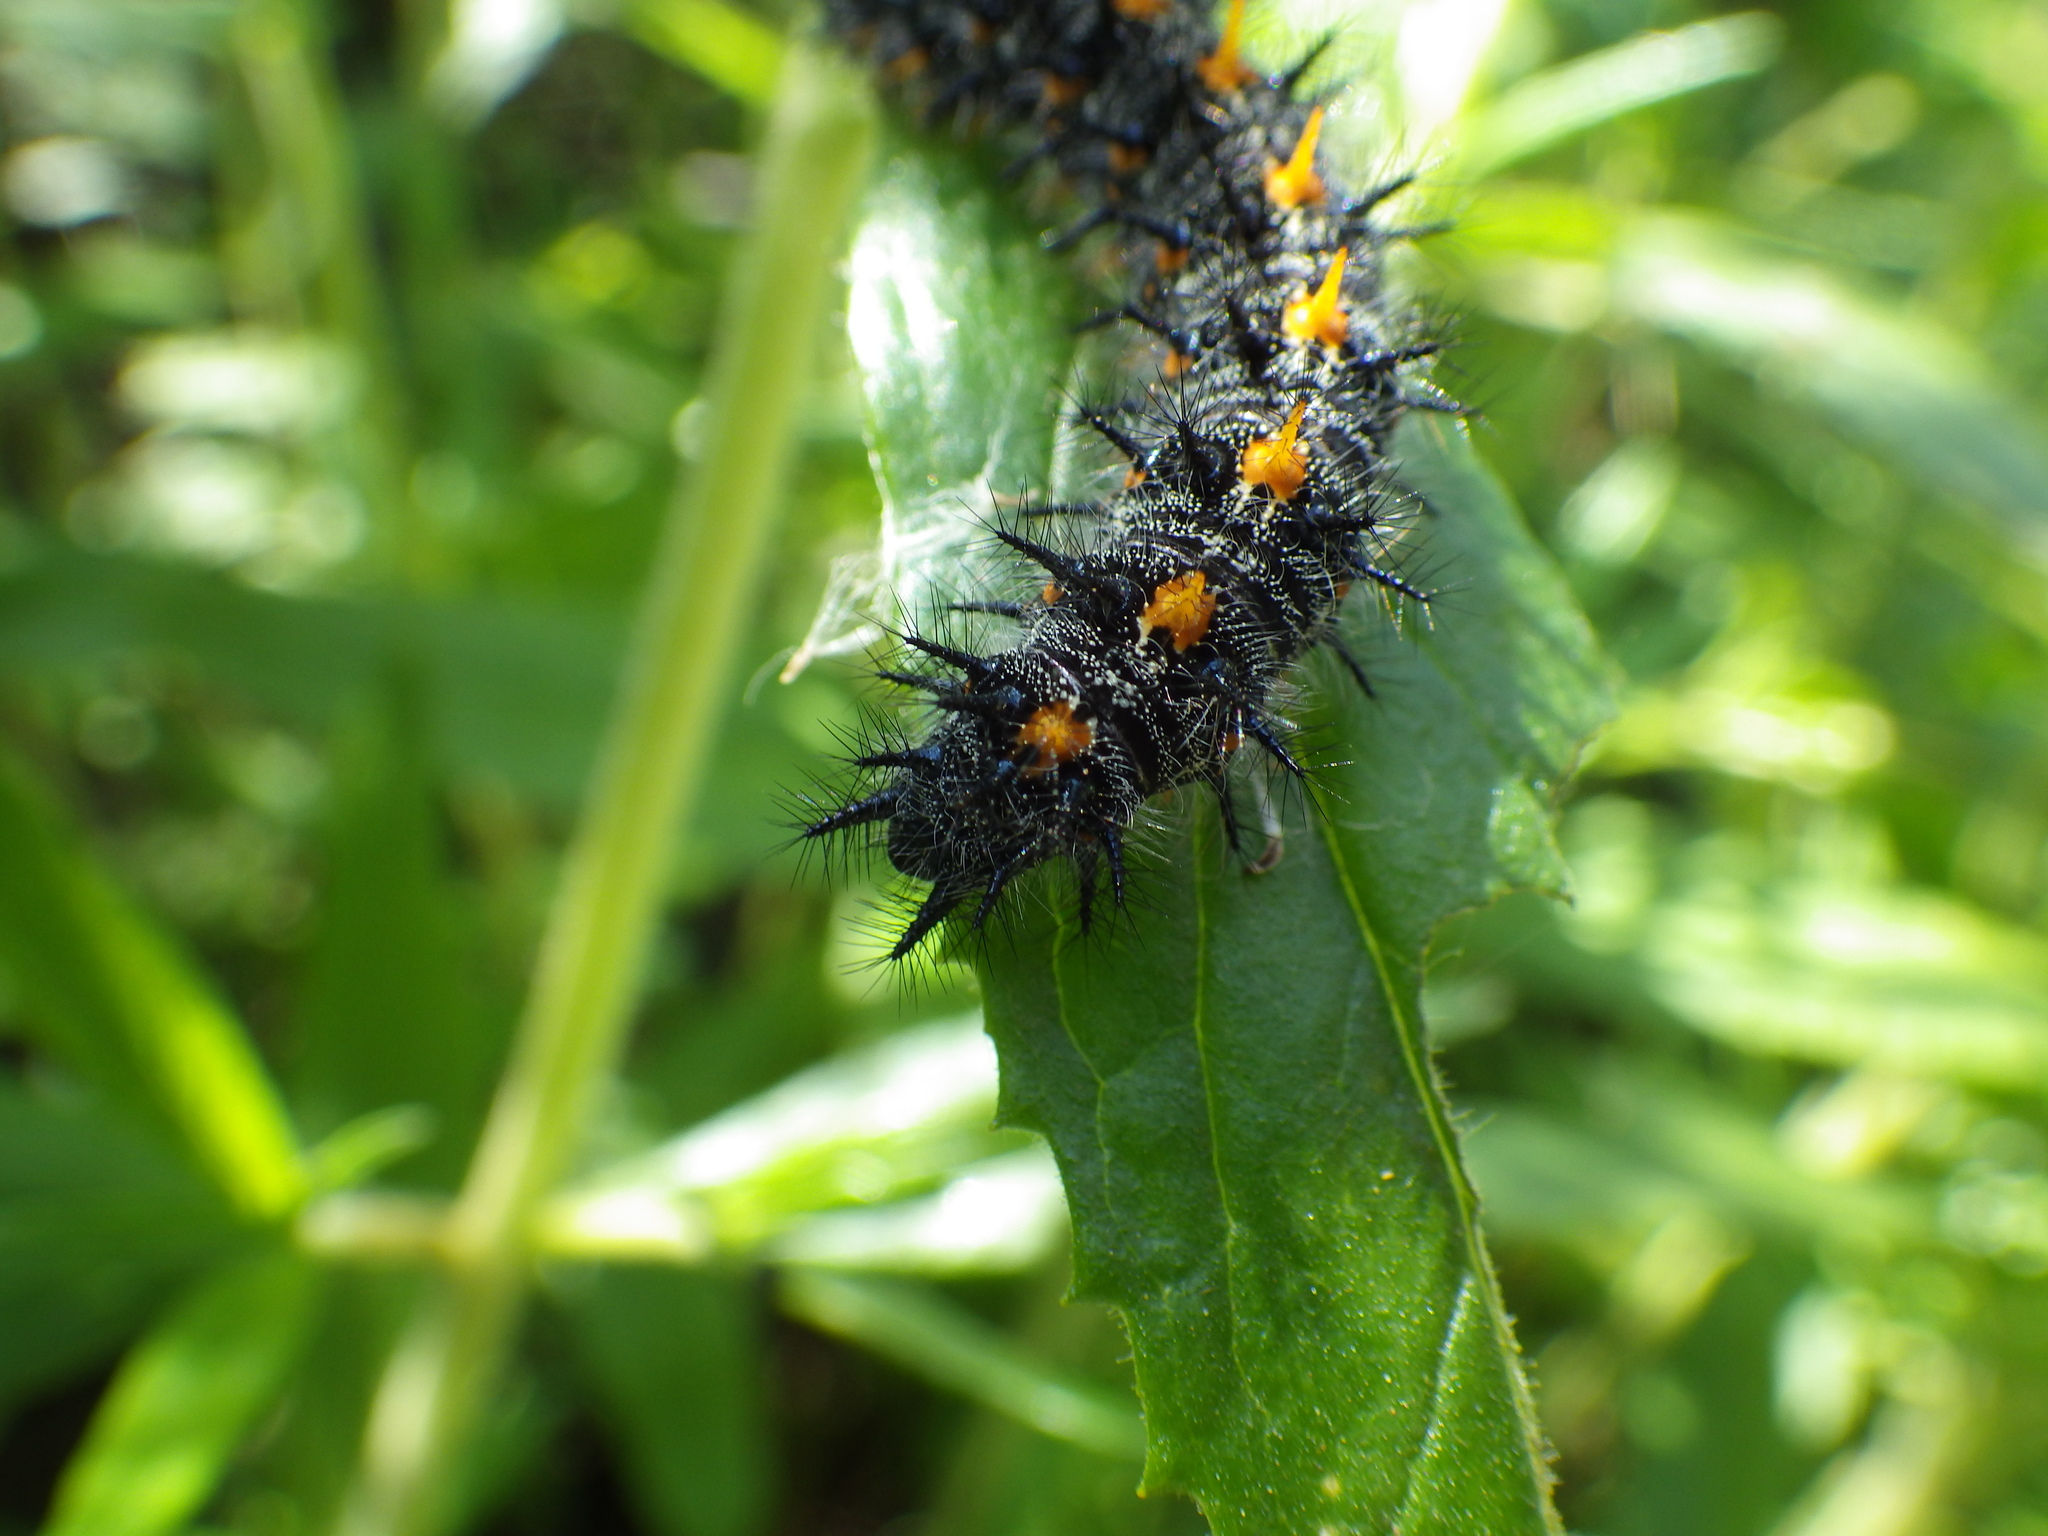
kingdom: Animalia
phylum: Arthropoda
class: Insecta
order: Lepidoptera
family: Nymphalidae
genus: Occidryas
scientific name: Occidryas chalcedona
